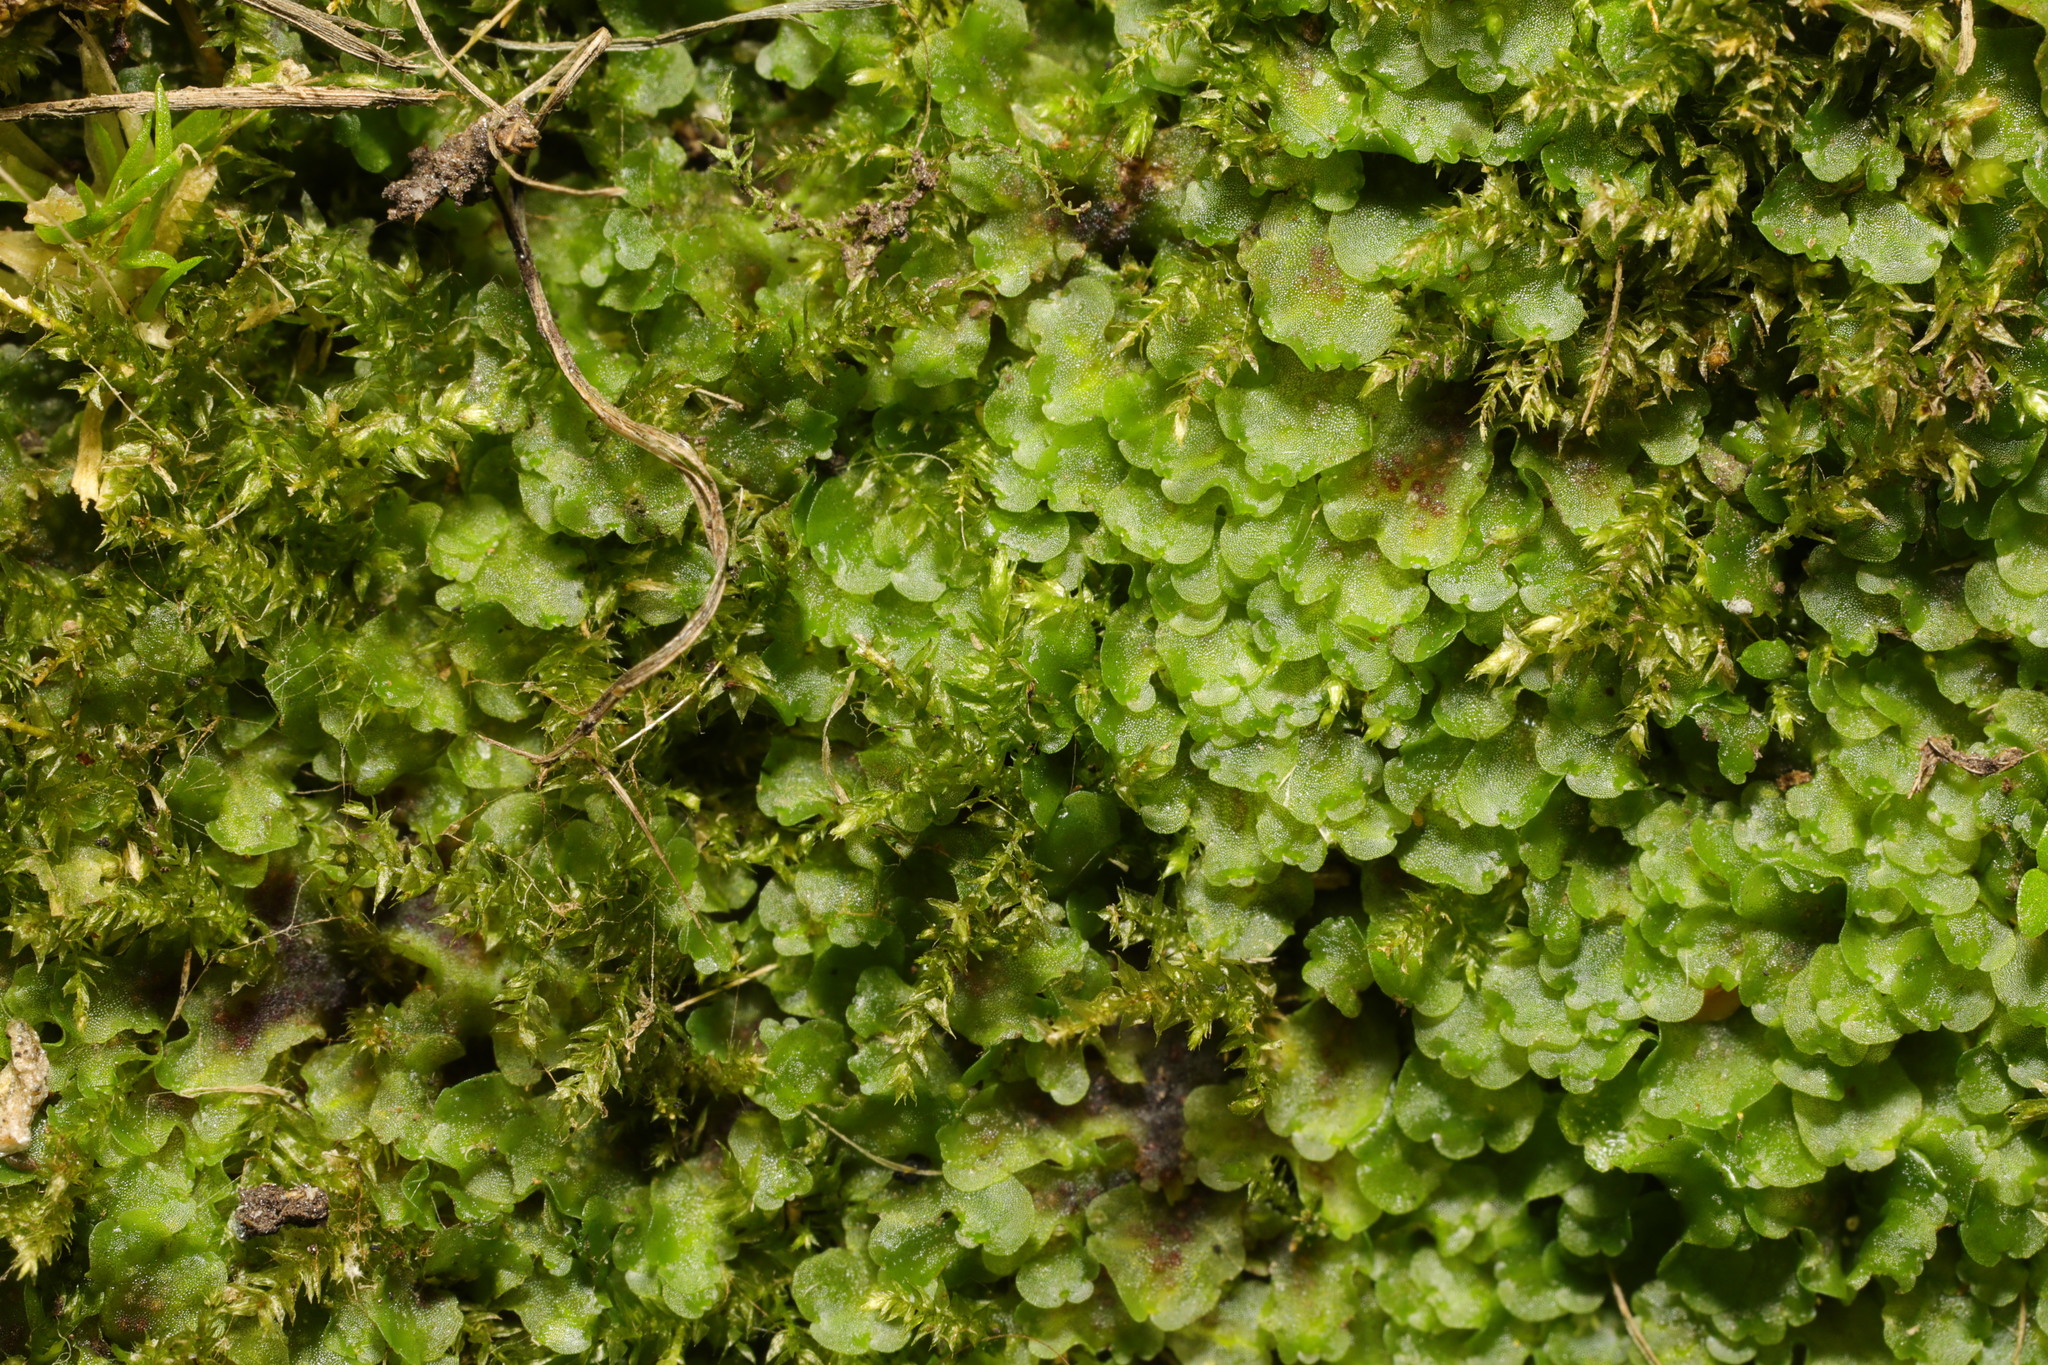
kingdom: Plantae
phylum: Marchantiophyta
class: Jungermanniopsida
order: Pelliales
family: Pelliaceae
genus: Pellia
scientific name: Pellia neesiana
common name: Nees  pellia
